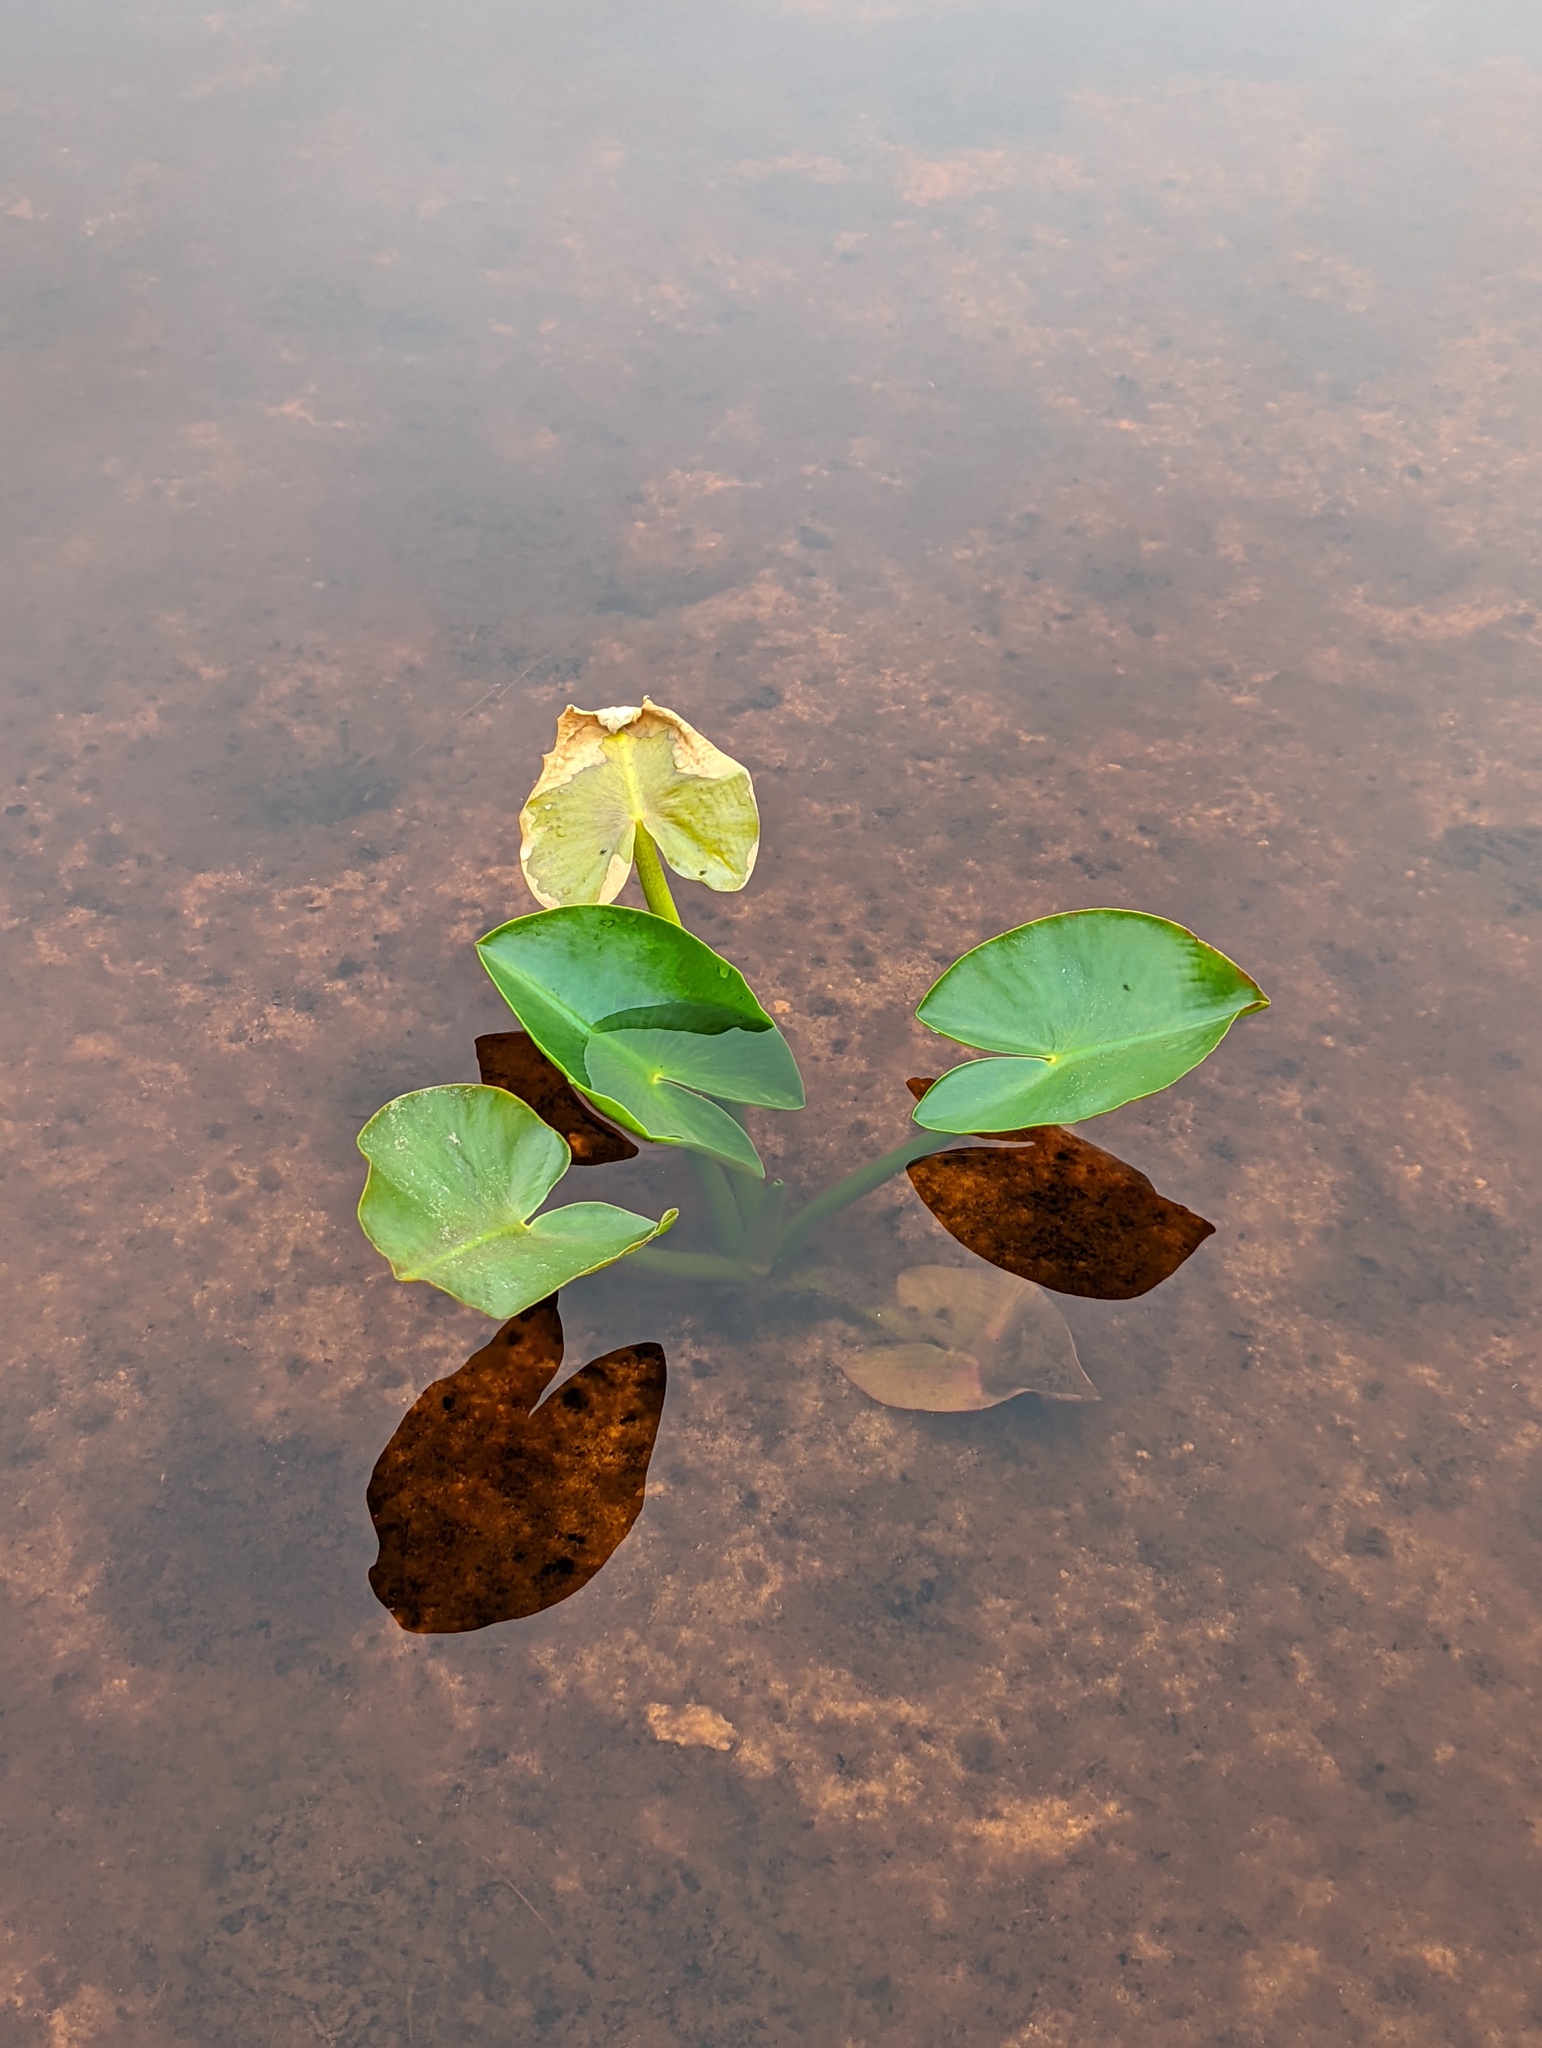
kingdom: Plantae
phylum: Tracheophyta
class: Magnoliopsida
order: Nymphaeales
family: Nymphaeaceae
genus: Nuphar
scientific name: Nuphar polysepala
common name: Rocky mountain cow-lily
